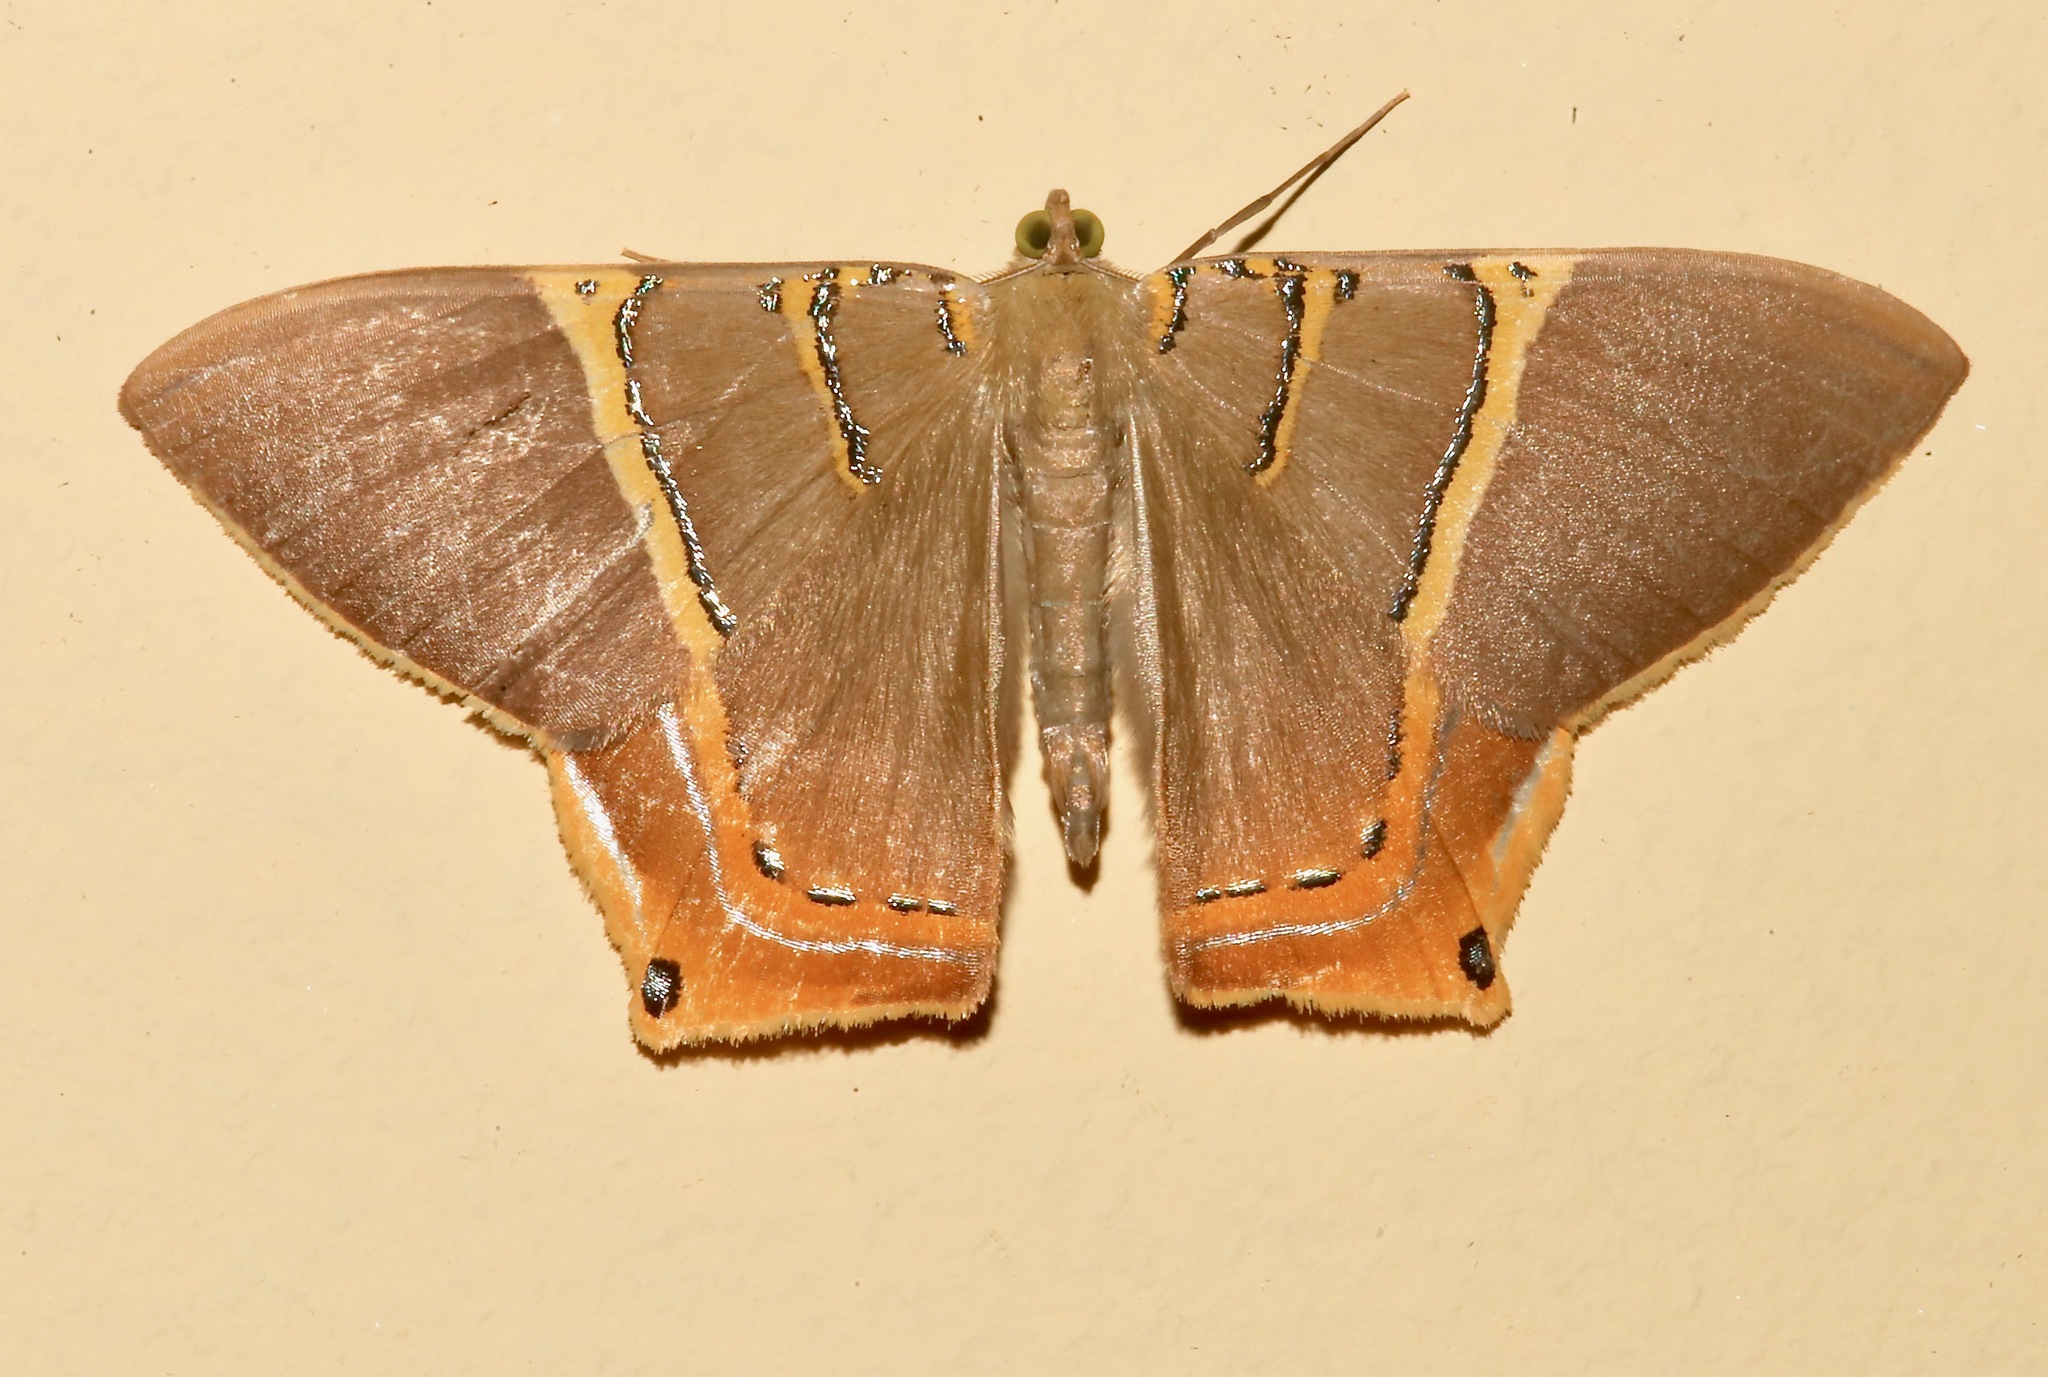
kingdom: Animalia
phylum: Arthropoda
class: Insecta
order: Lepidoptera
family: Geometridae
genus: Phrygionis
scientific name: Phrygionis polita
